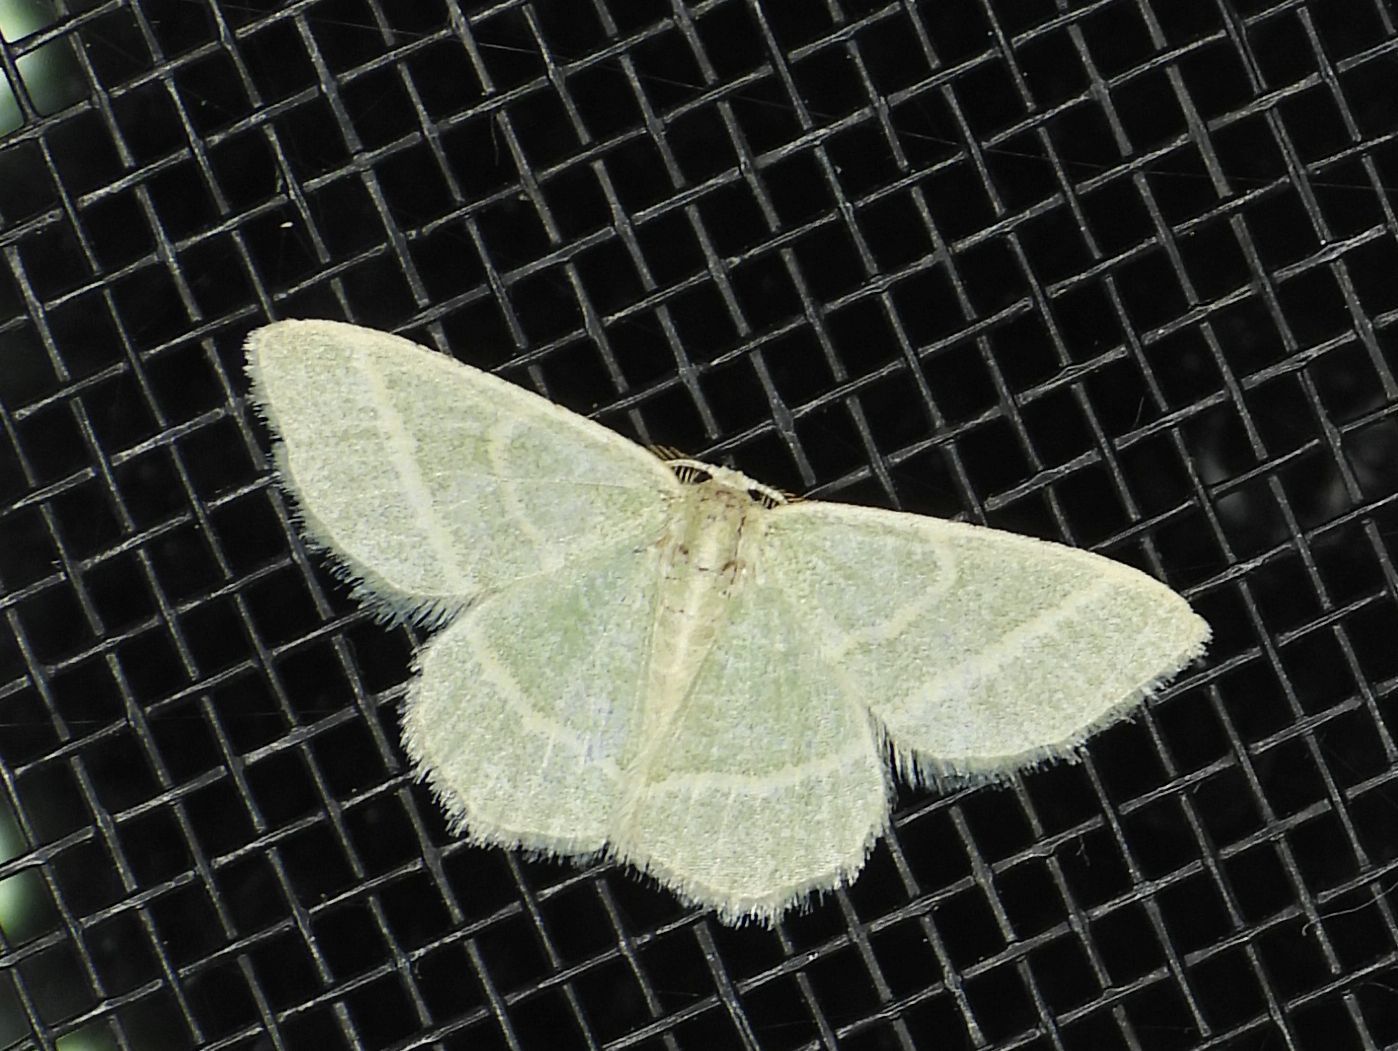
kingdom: Animalia
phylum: Arthropoda
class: Insecta
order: Lepidoptera
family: Geometridae
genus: Chlorochlamys
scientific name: Chlorochlamys chloroleucaria
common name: Blackberry looper
